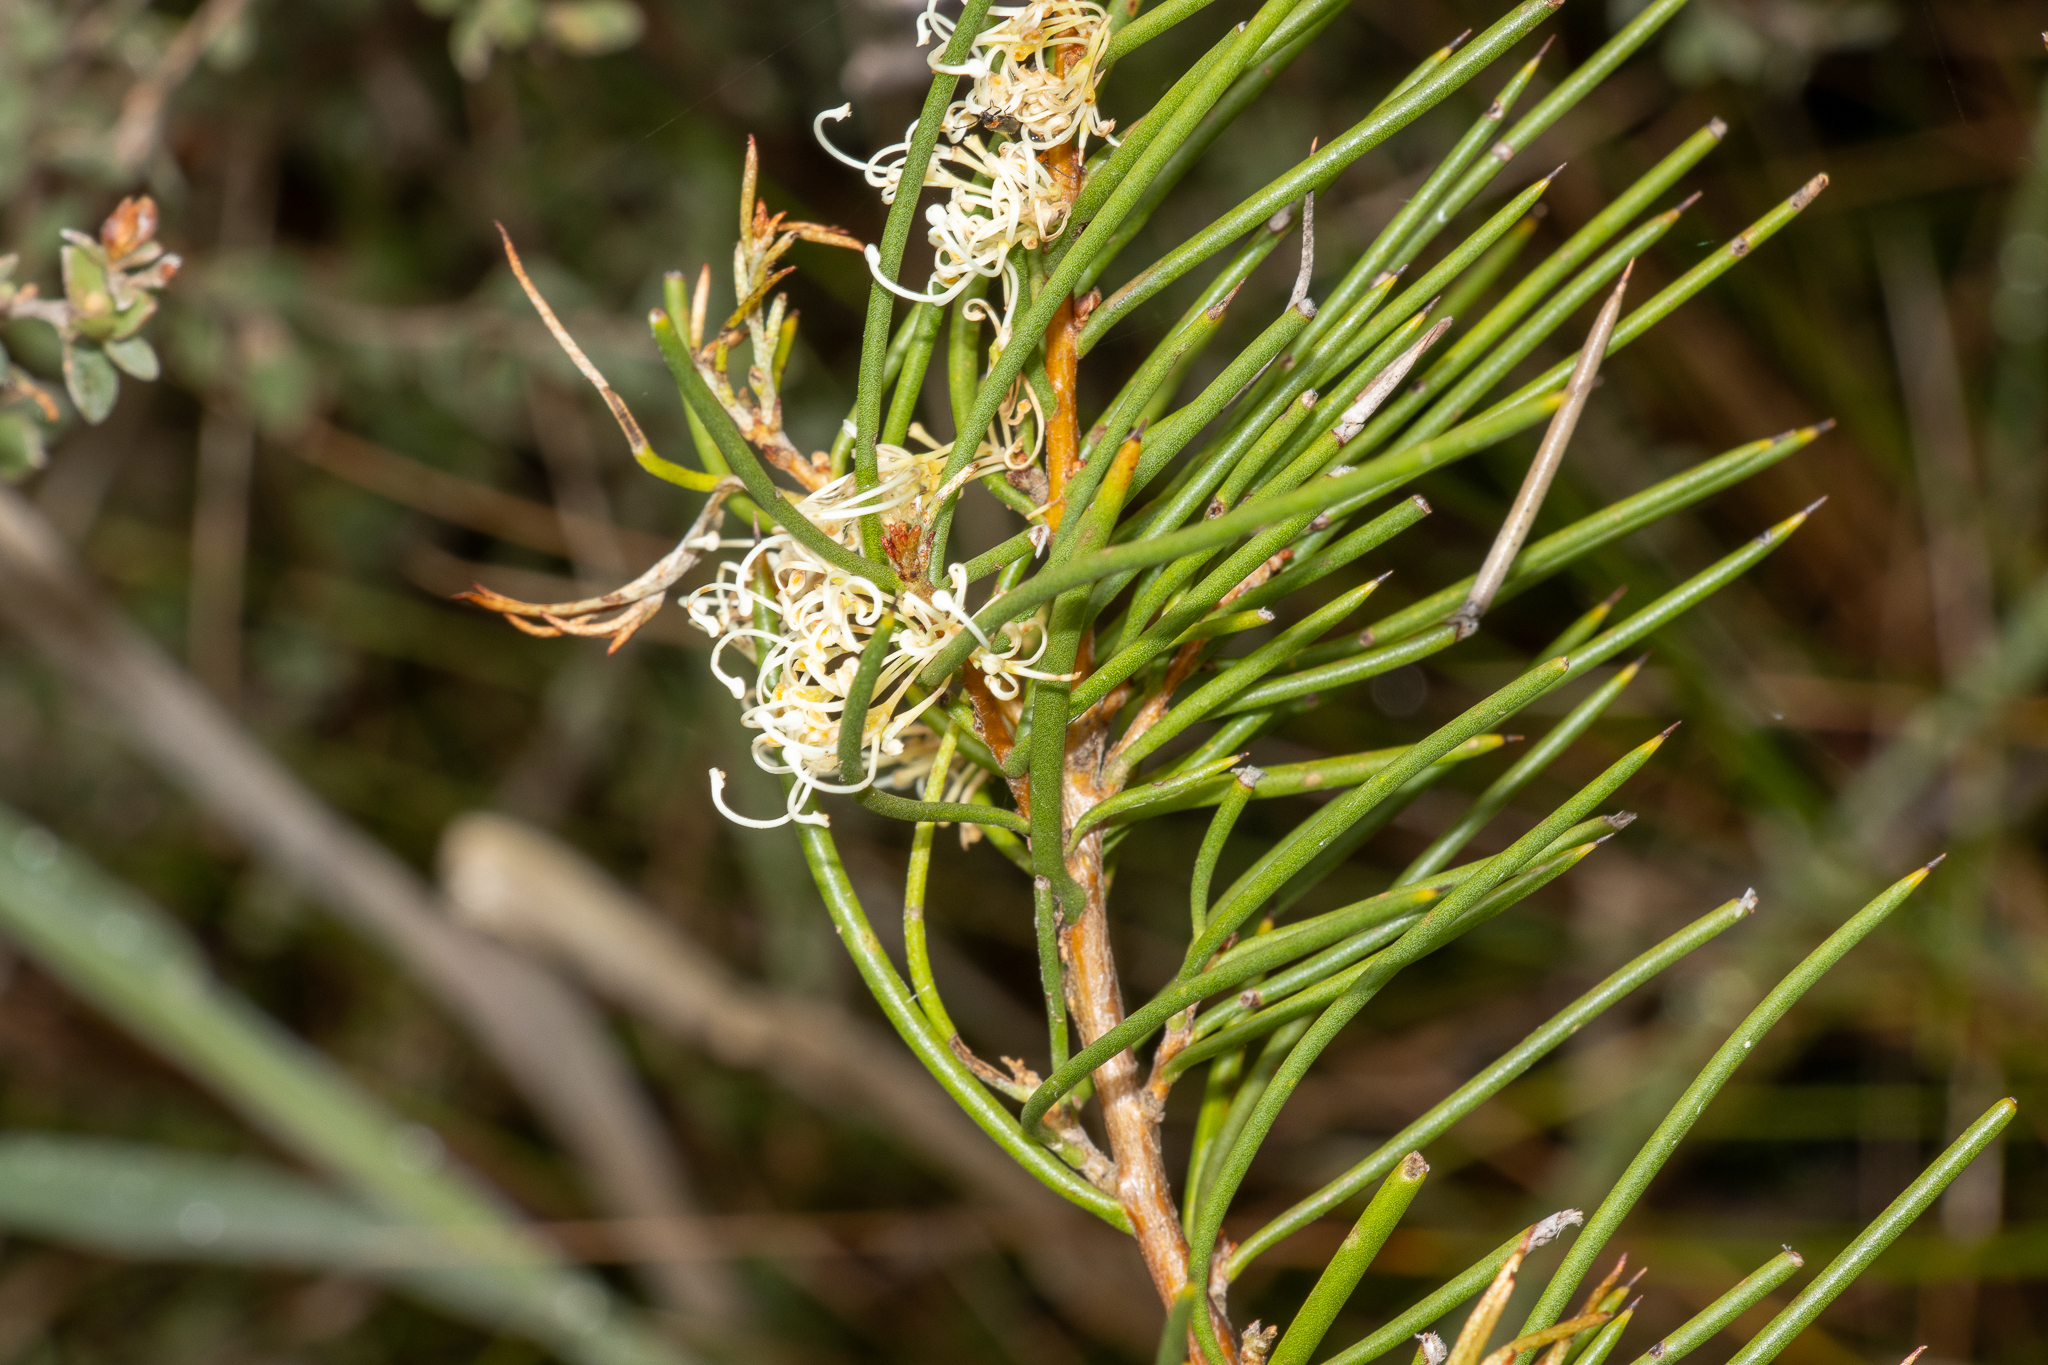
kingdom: Plantae
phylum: Tracheophyta
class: Magnoliopsida
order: Proteales
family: Proteaceae
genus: Hakea
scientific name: Hakea microcarpa
